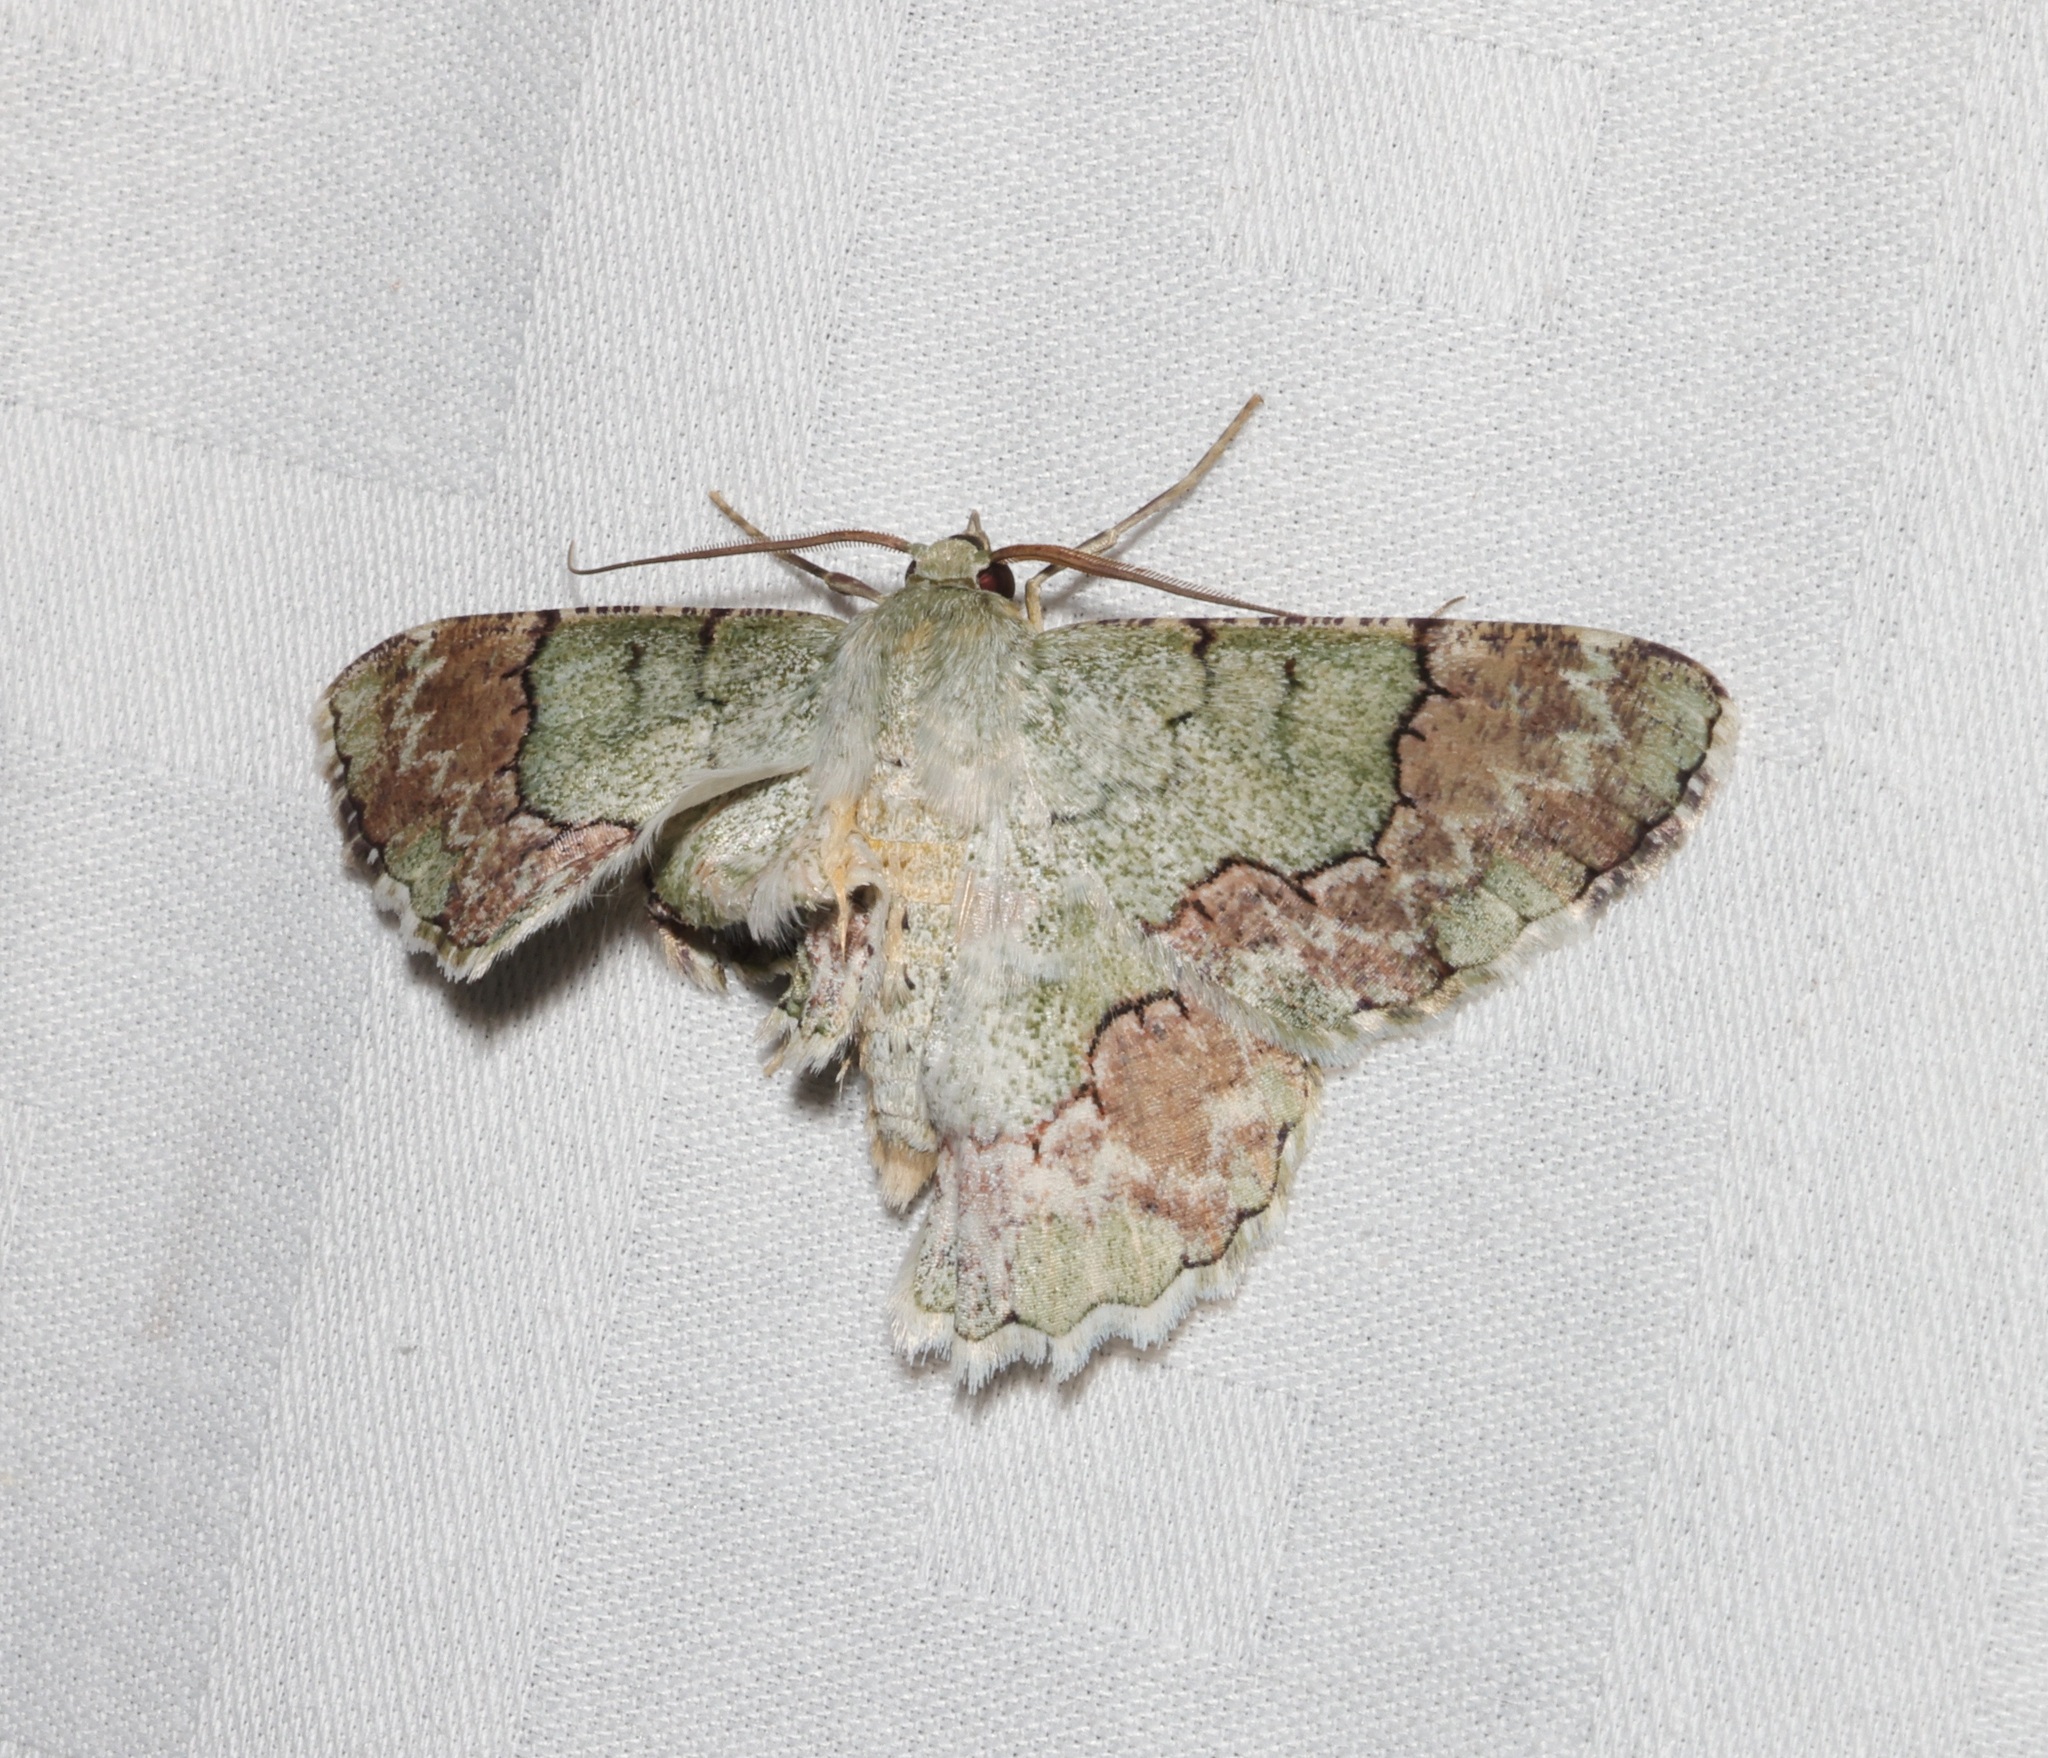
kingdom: Animalia
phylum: Arthropoda
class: Insecta
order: Lepidoptera
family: Geometridae
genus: Pingasa
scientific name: Pingasa ruginaria
